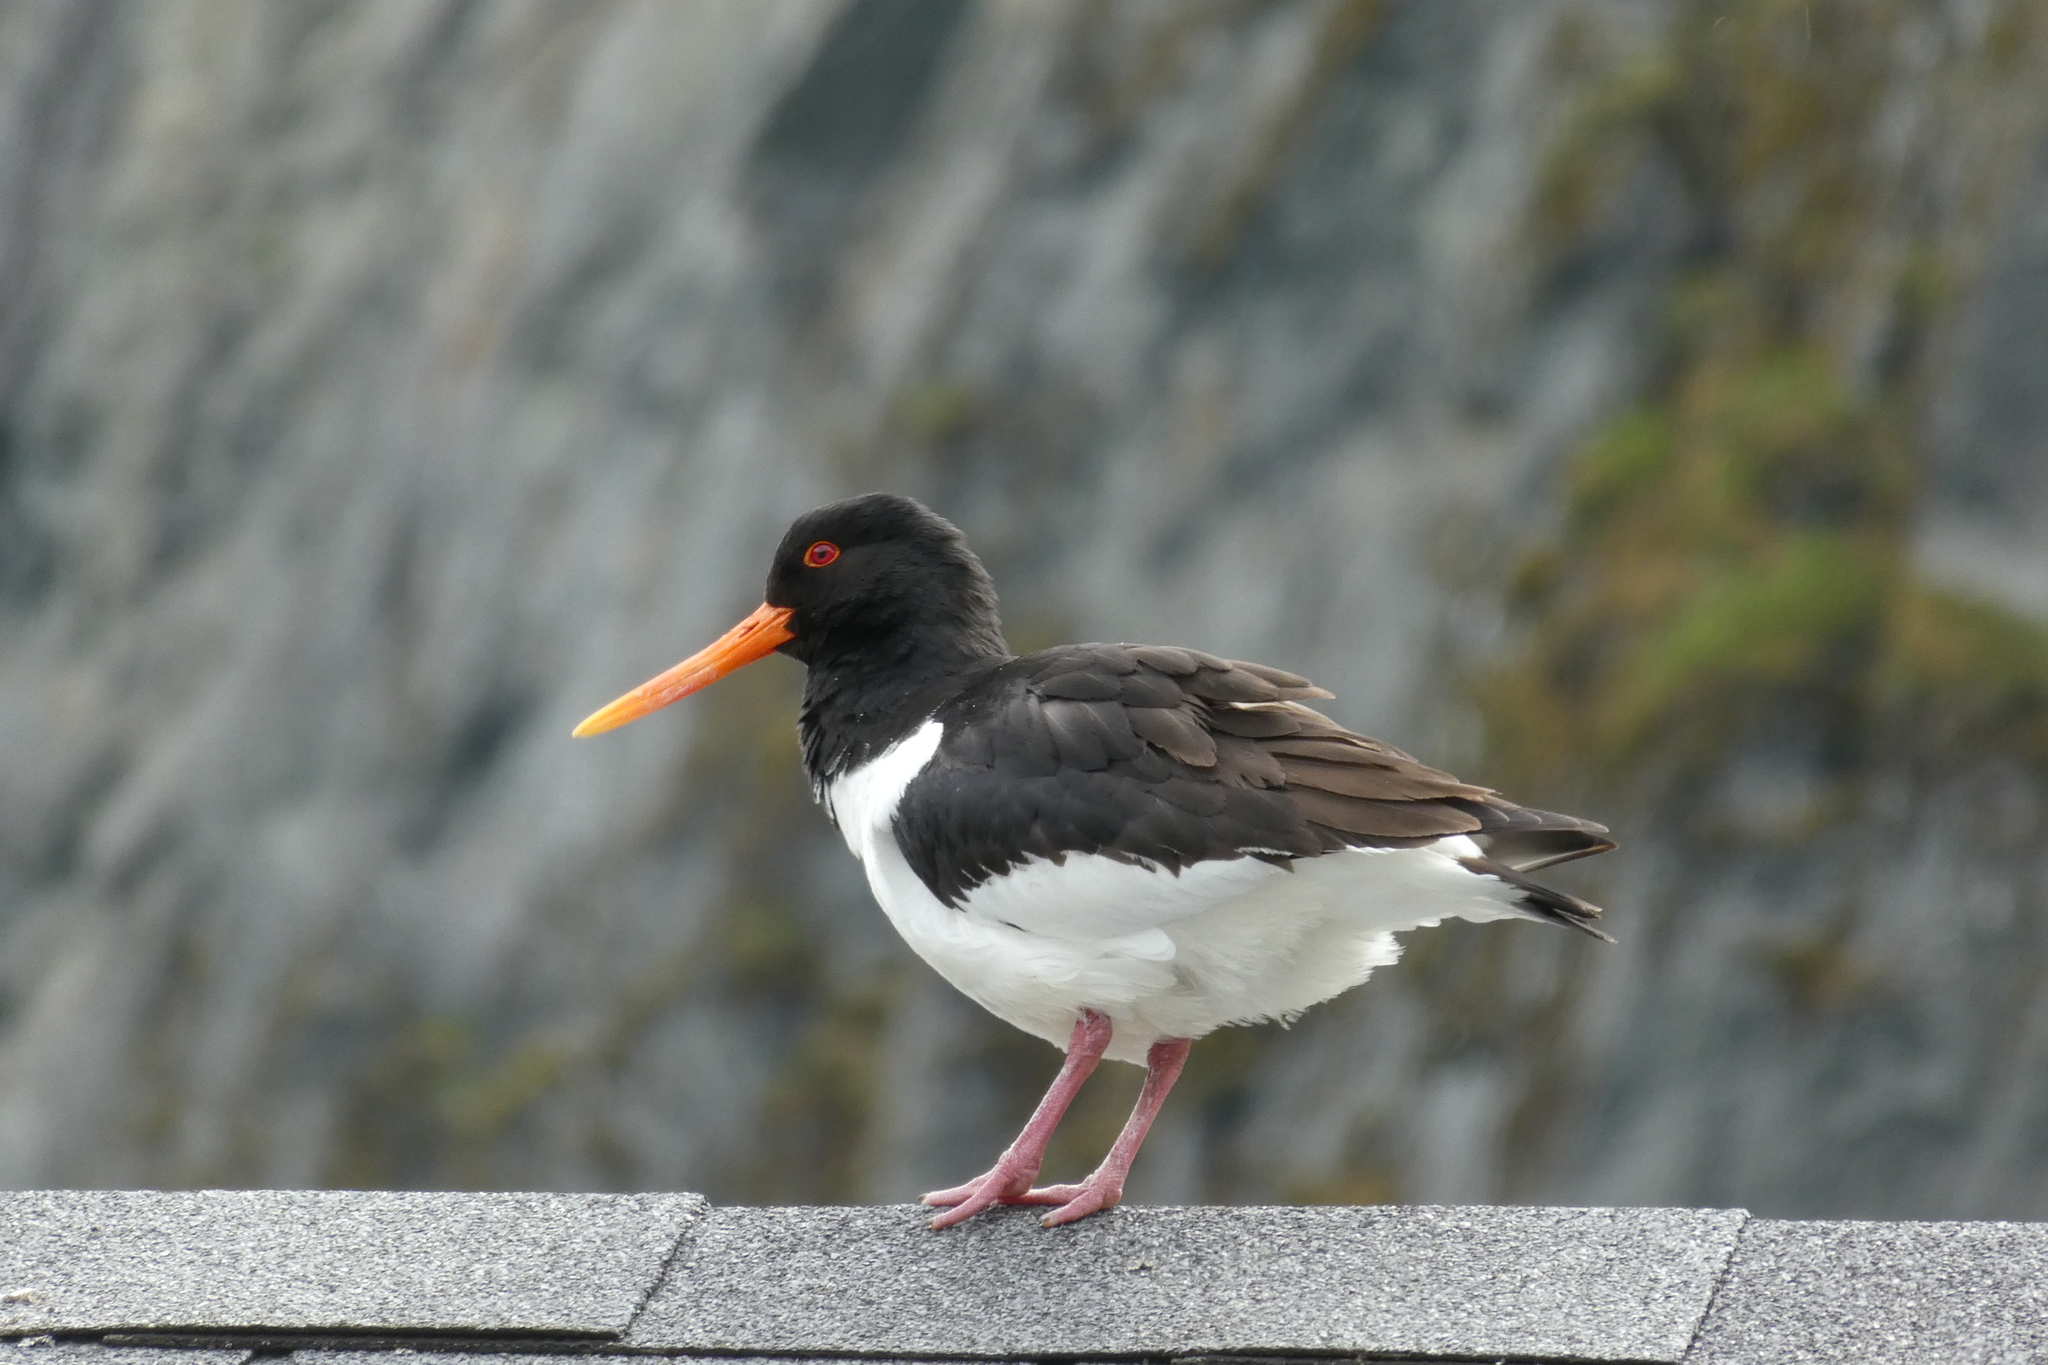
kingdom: Animalia
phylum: Chordata
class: Aves
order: Charadriiformes
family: Haematopodidae
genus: Haematopus
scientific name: Haematopus ostralegus
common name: Eurasian oystercatcher
